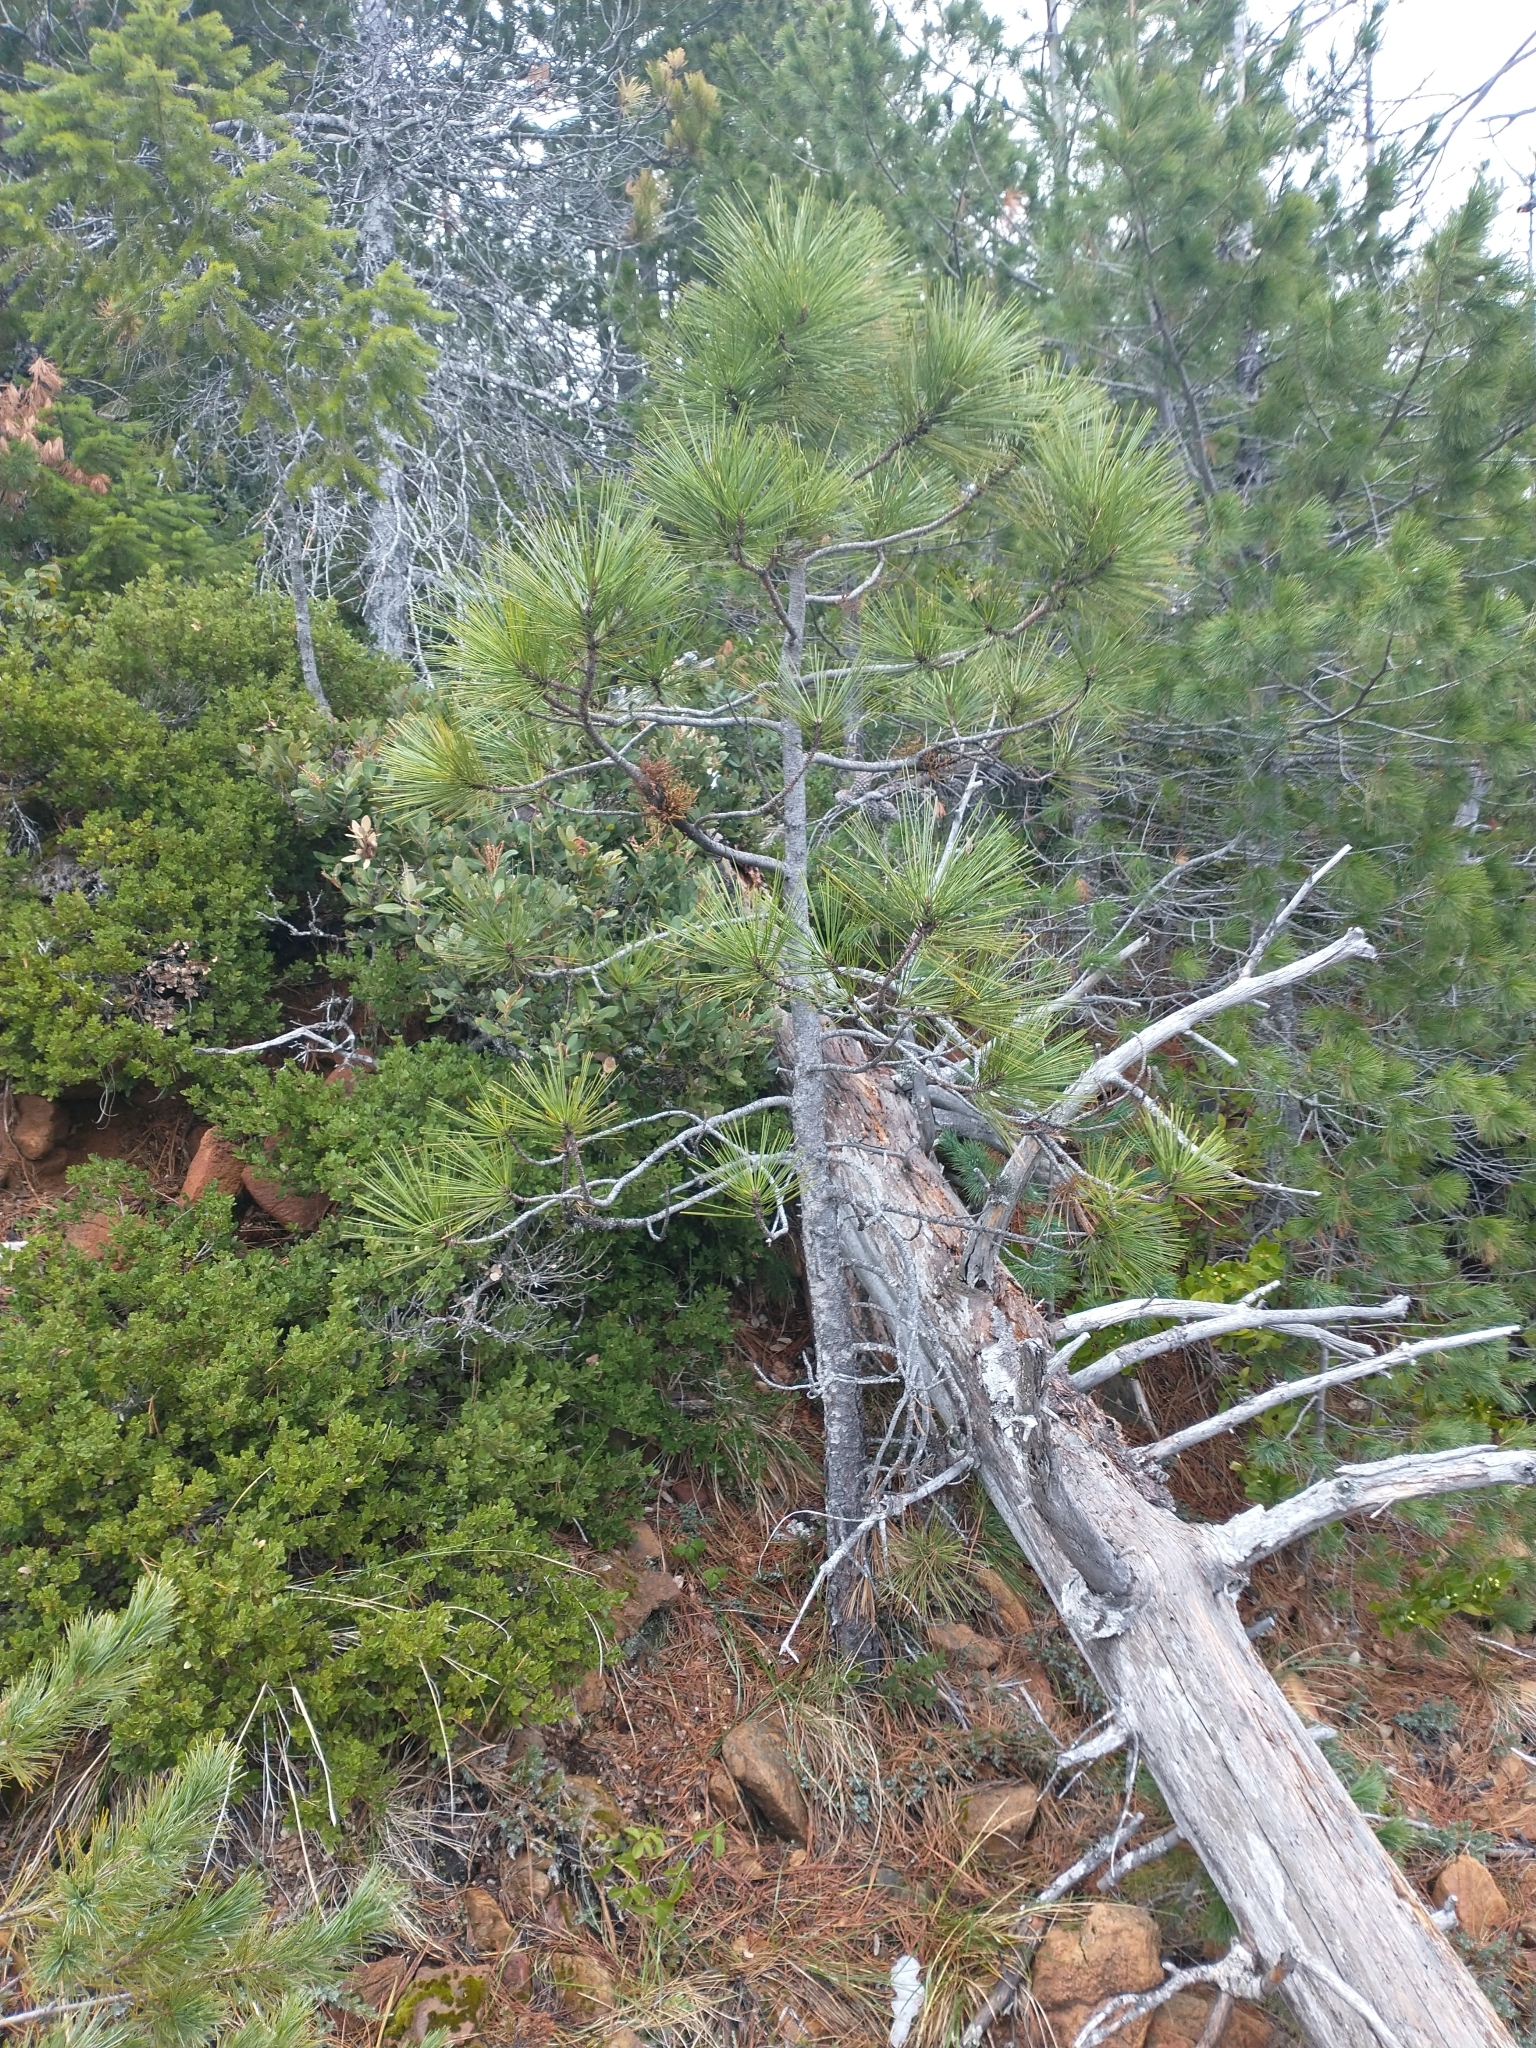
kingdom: Plantae
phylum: Tracheophyta
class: Magnoliopsida
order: Santalales
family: Viscaceae
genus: Arceuthobium
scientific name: Arceuthobium campylopodum
